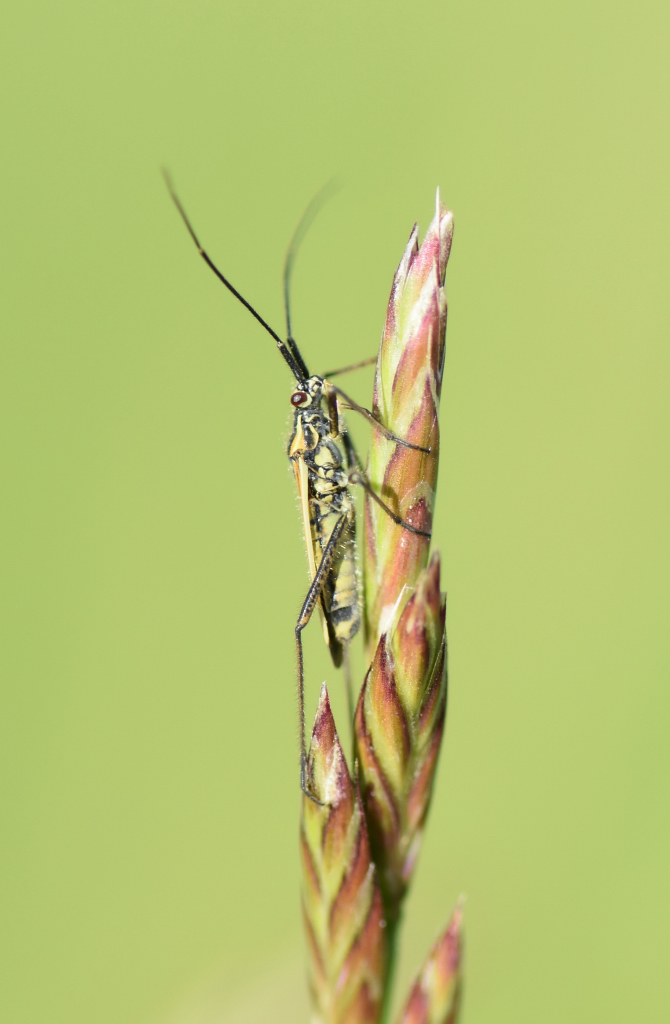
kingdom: Animalia
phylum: Arthropoda
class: Insecta
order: Hemiptera
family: Miridae
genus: Leptopterna
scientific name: Leptopterna dolabrata
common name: Meadow plant bug
